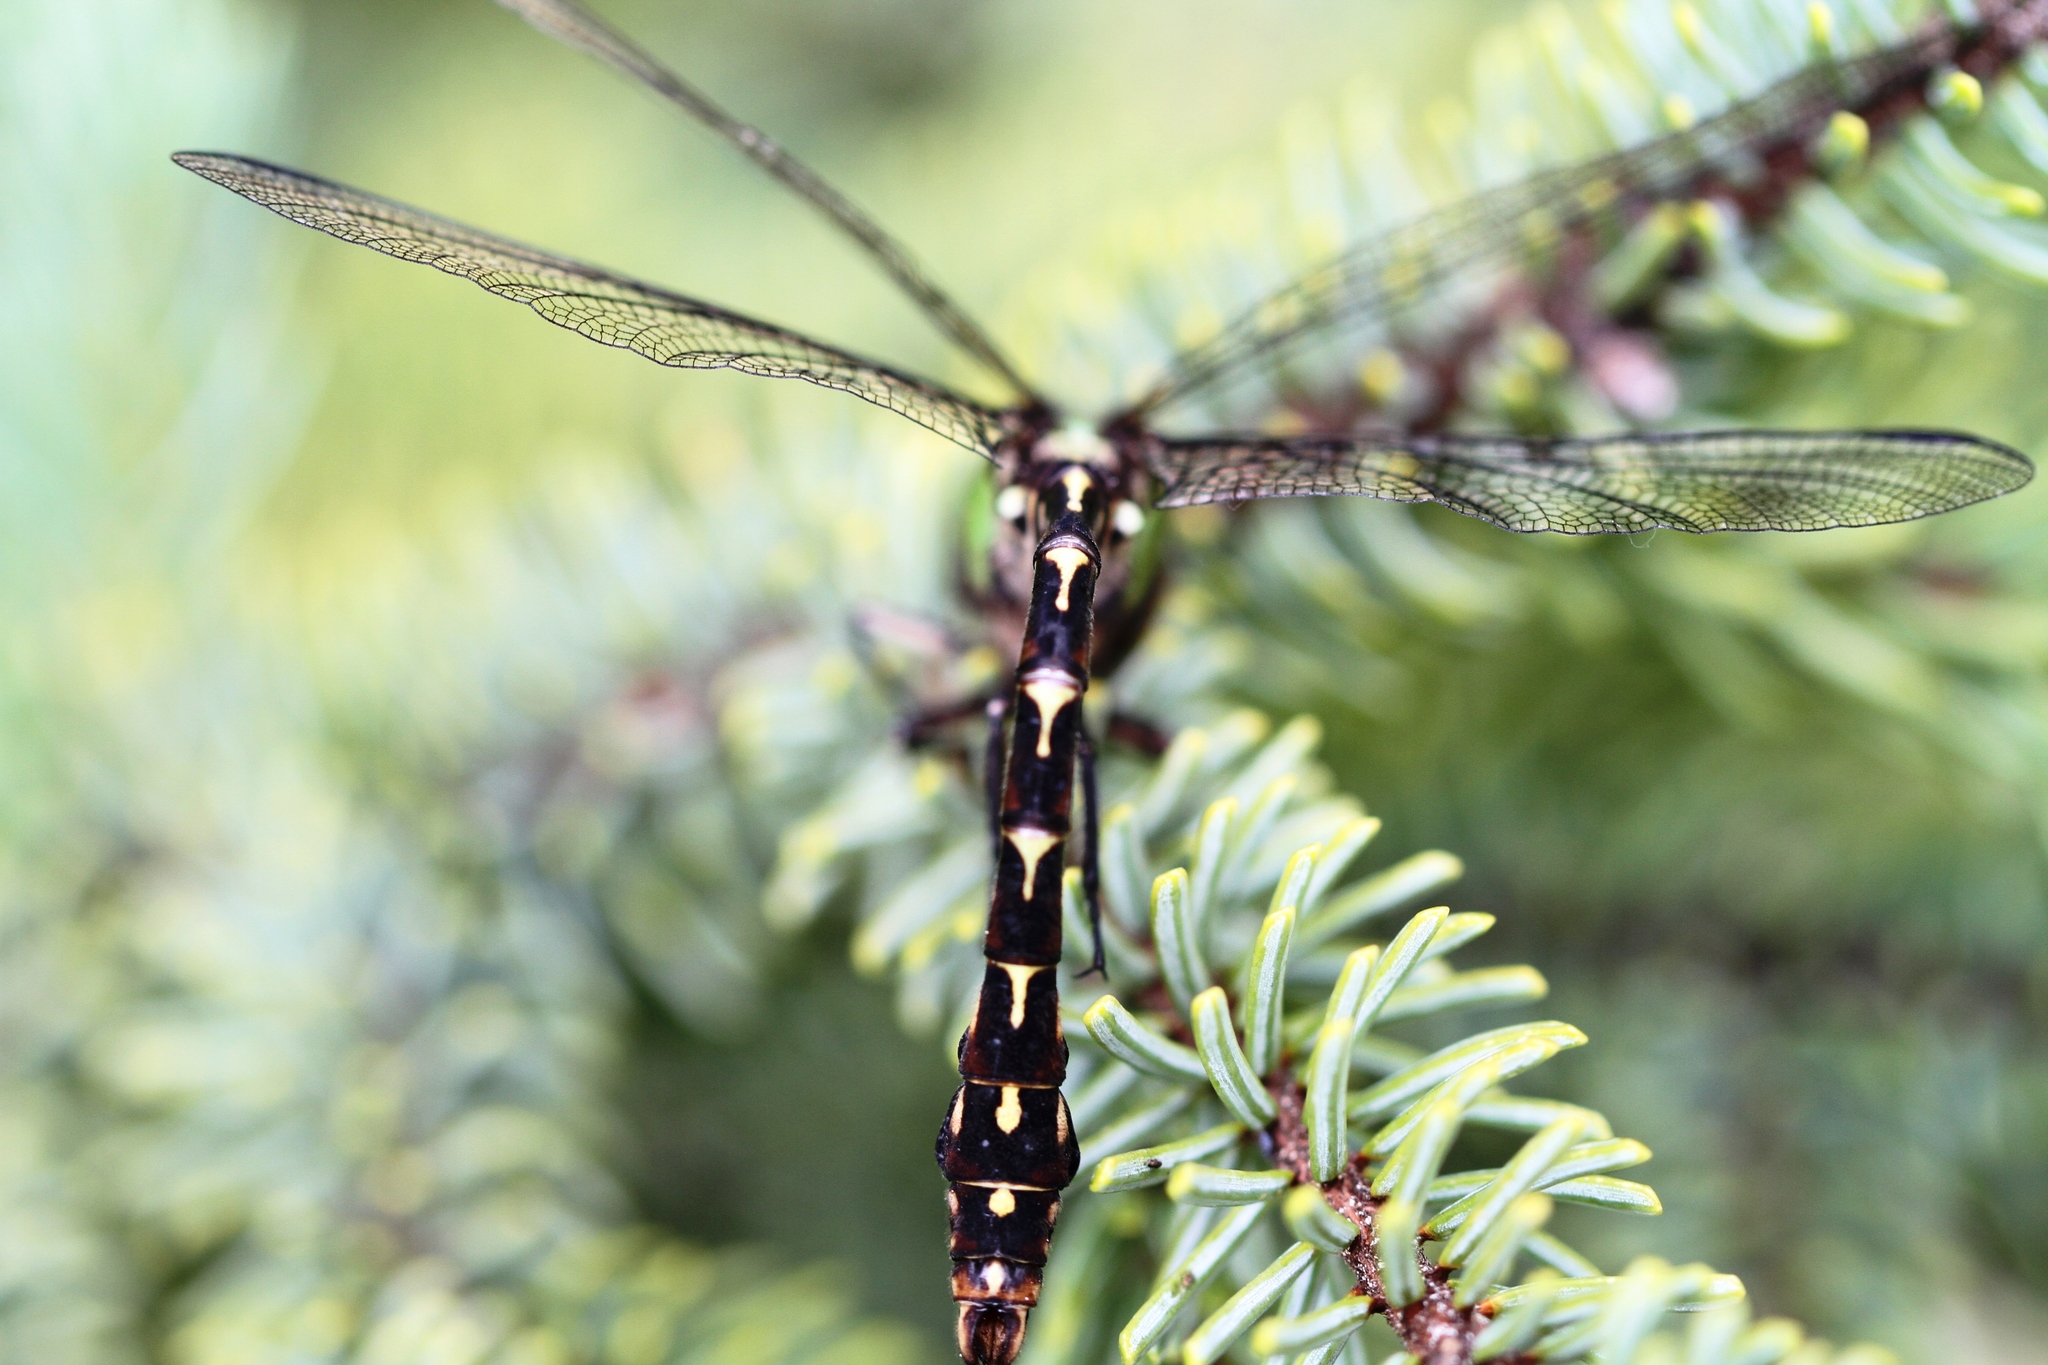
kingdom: Animalia
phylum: Arthropoda
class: Insecta
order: Odonata
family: Gomphidae
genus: Ophiogomphus
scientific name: Ophiogomphus colubrinus
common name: Boreal snaketail
